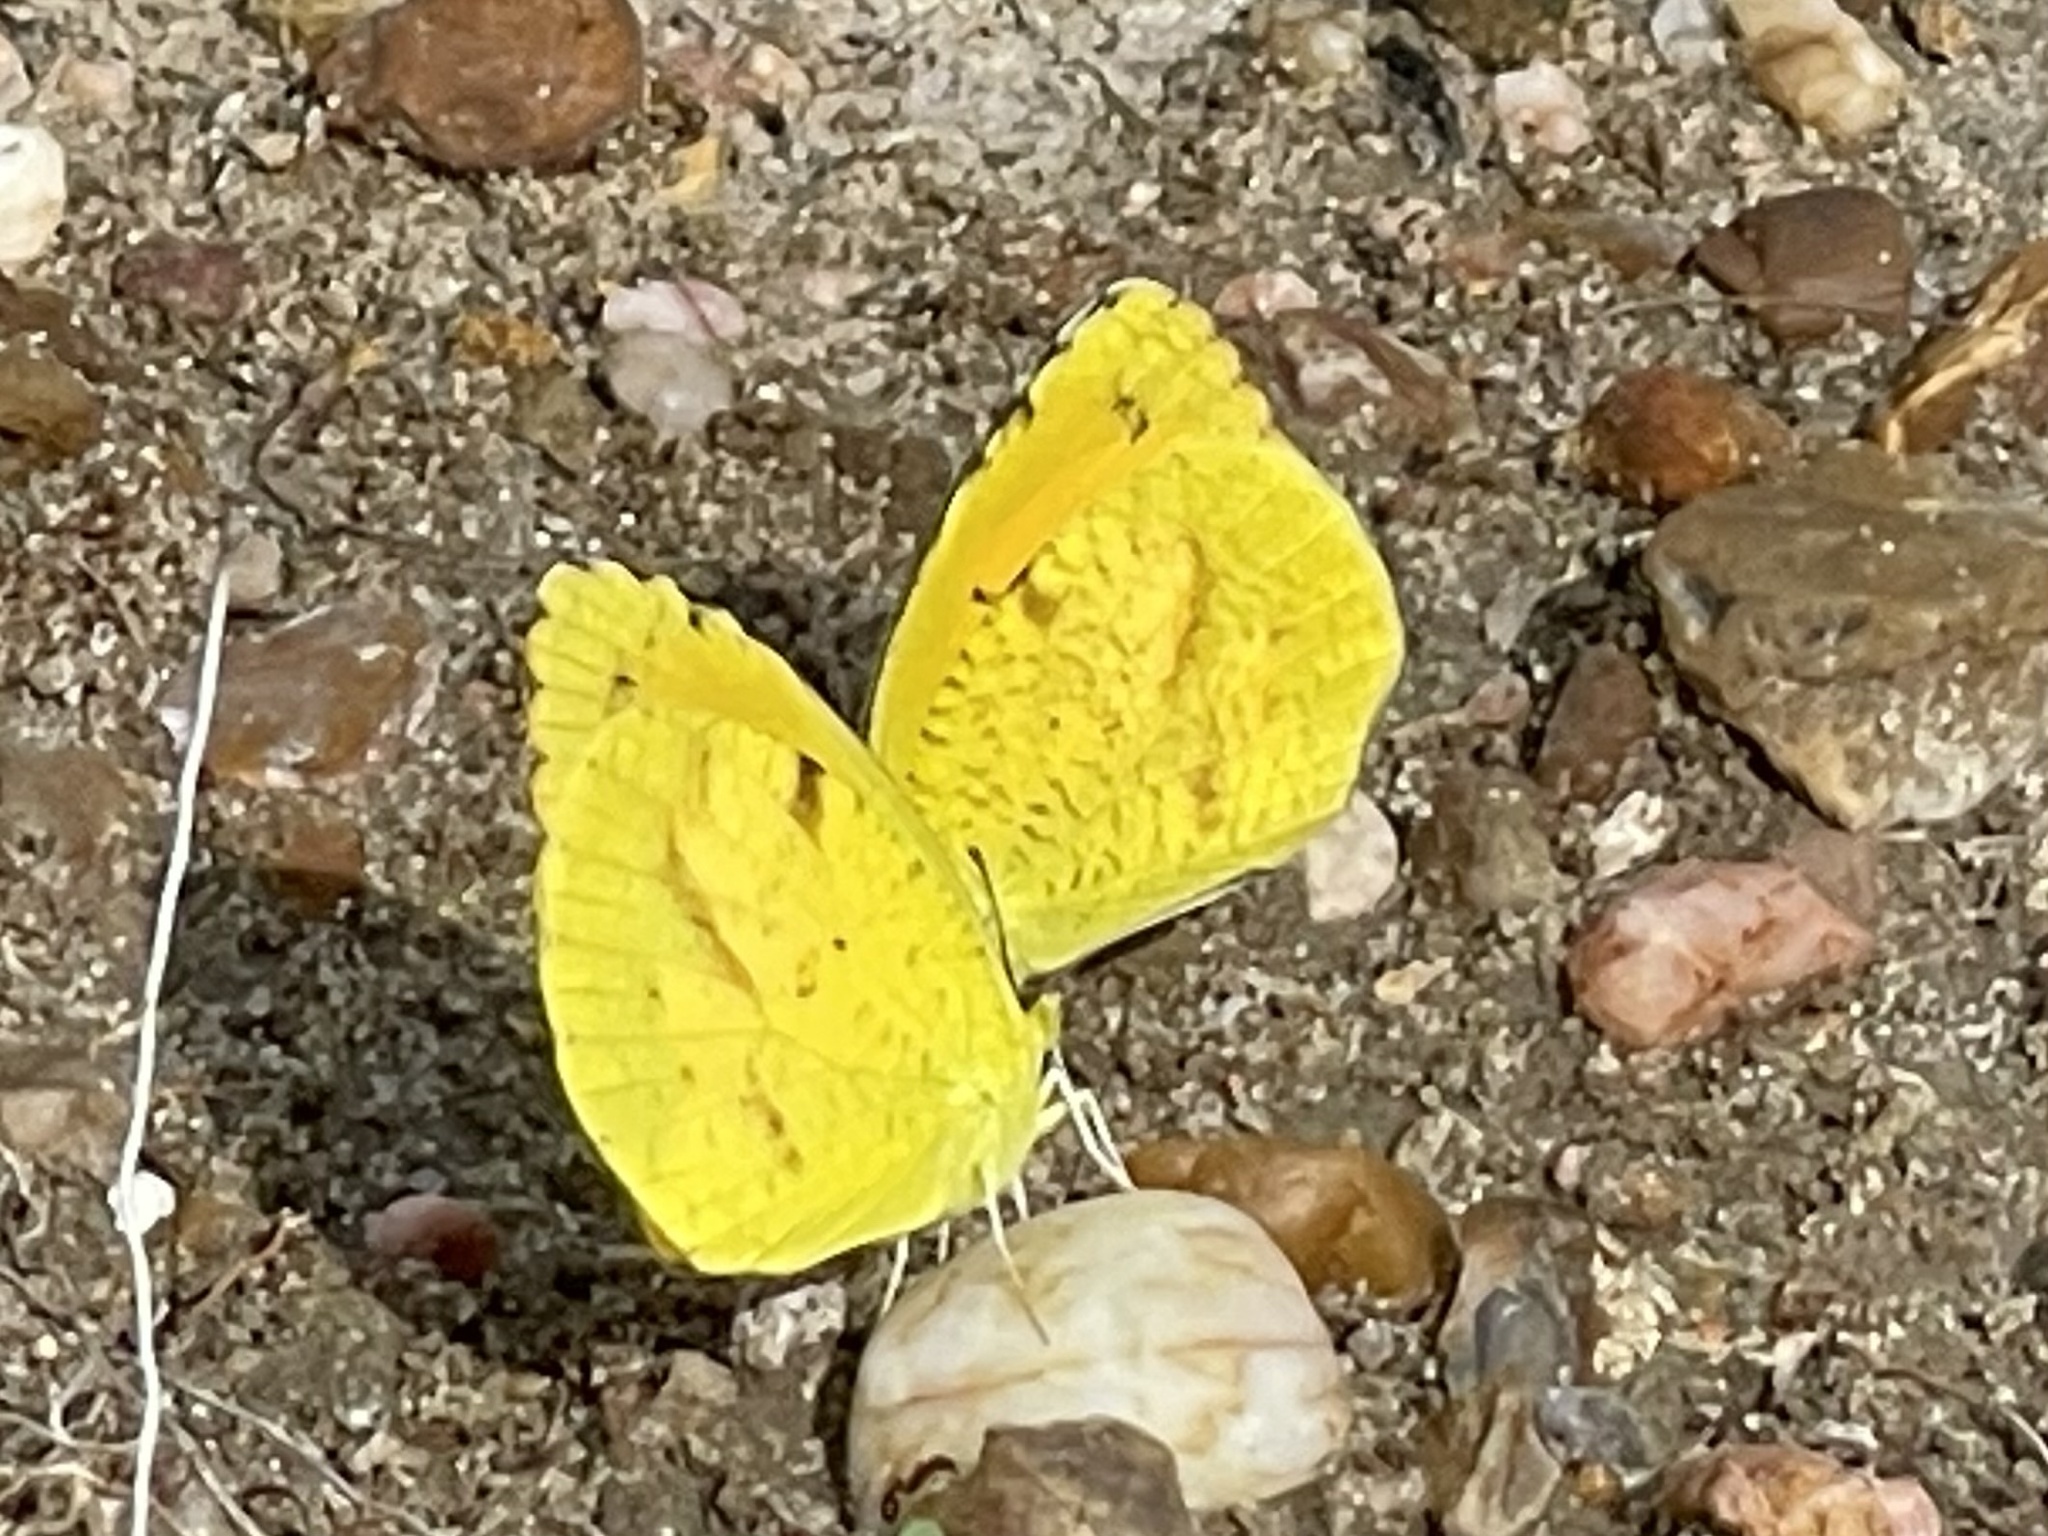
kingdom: Animalia
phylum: Arthropoda
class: Insecta
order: Lepidoptera
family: Pieridae
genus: Abaeis
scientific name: Abaeis nicippe
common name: Sleepy orange
